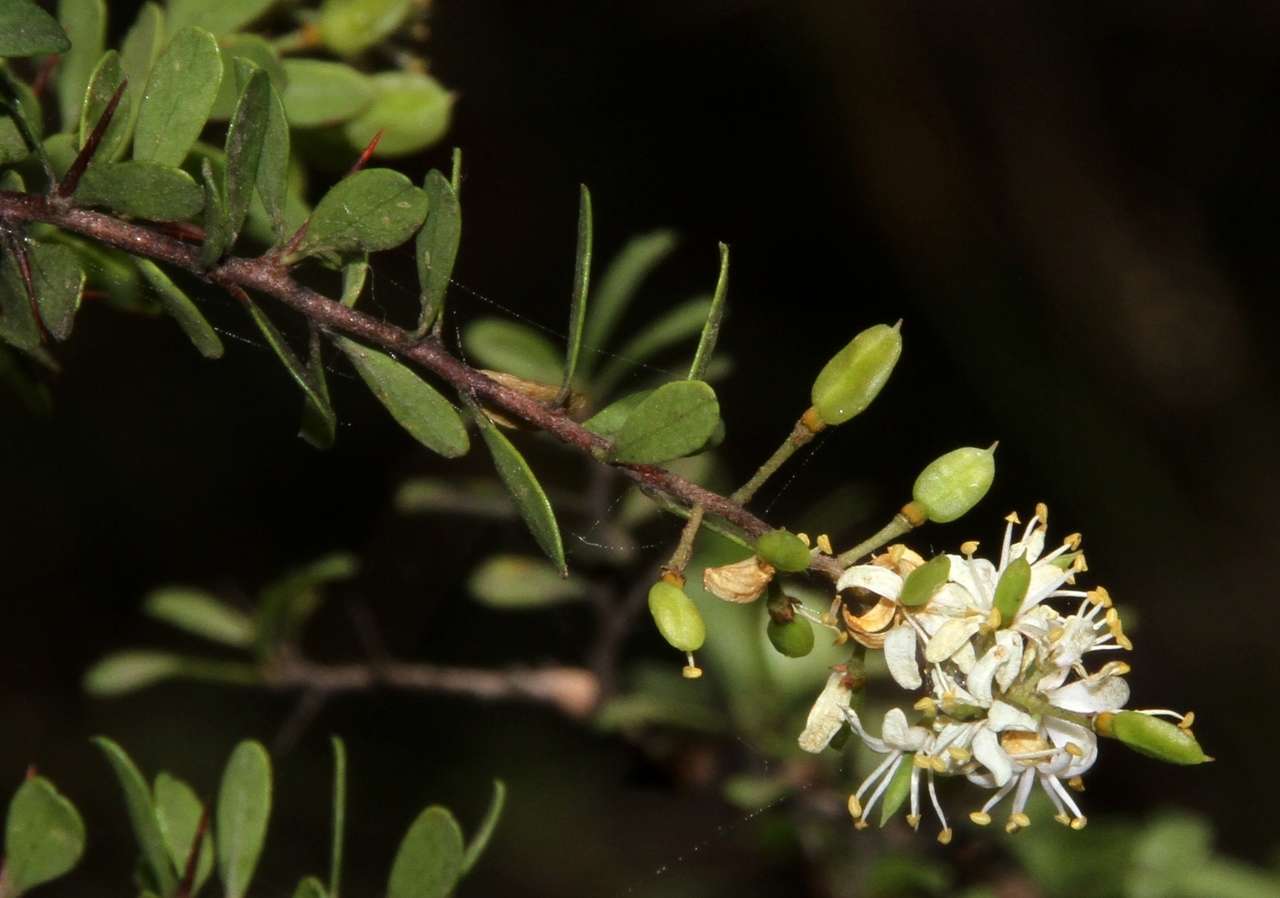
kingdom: Plantae
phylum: Tracheophyta
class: Magnoliopsida
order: Apiales
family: Pittosporaceae
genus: Bursaria
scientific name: Bursaria spinosa
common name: Australian blackthorn
